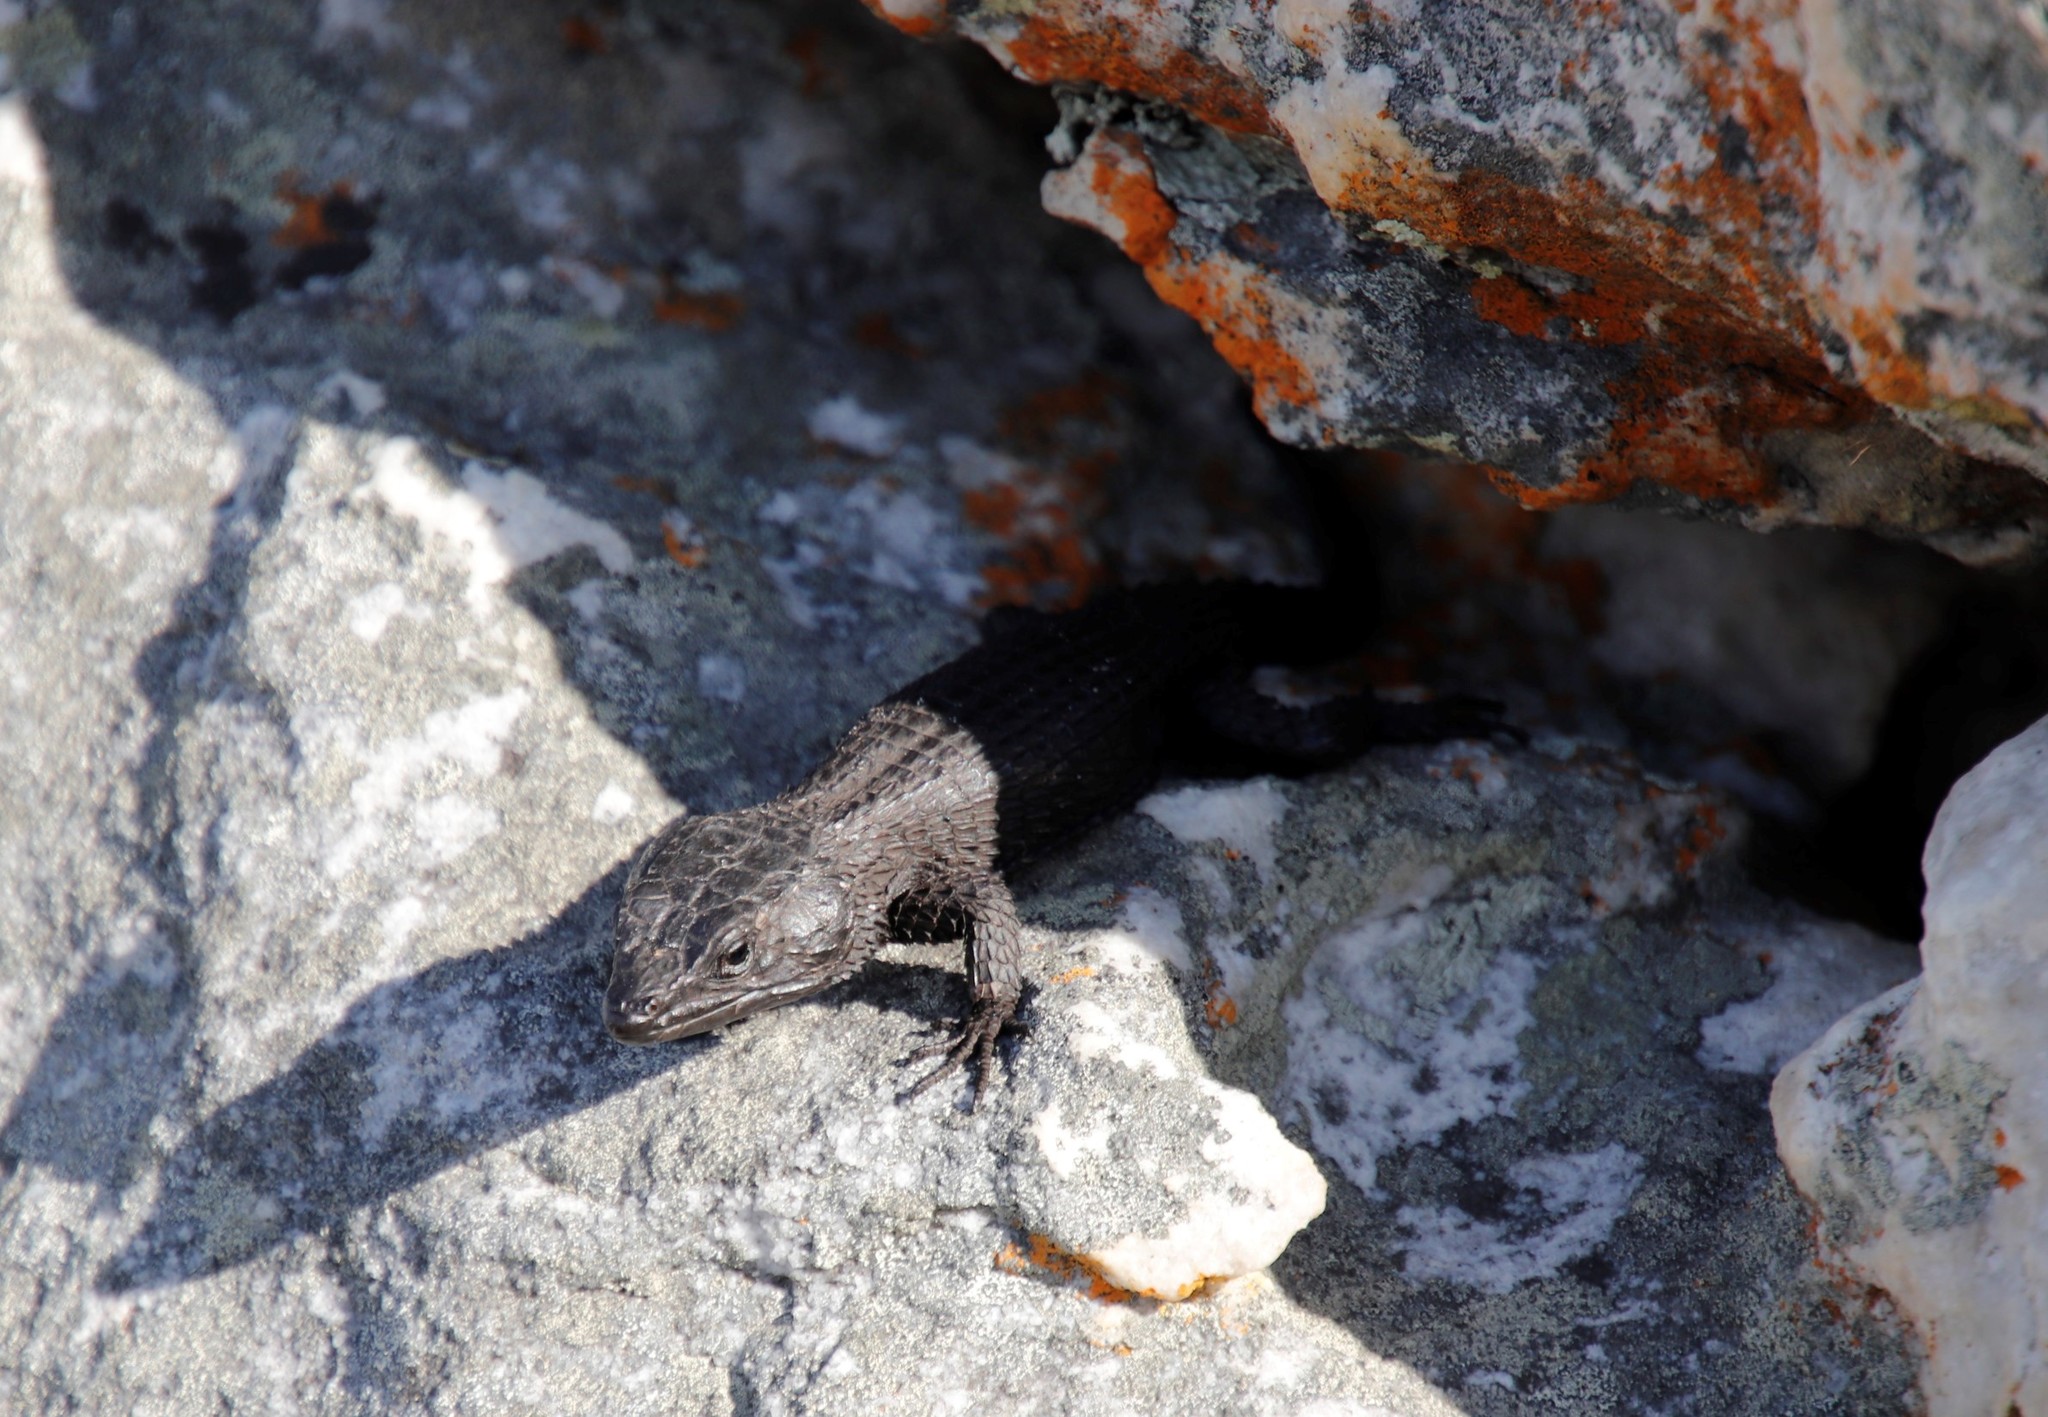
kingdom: Animalia
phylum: Chordata
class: Squamata
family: Cordylidae
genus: Cordylus
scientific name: Cordylus niger
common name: Black girdled lizard
